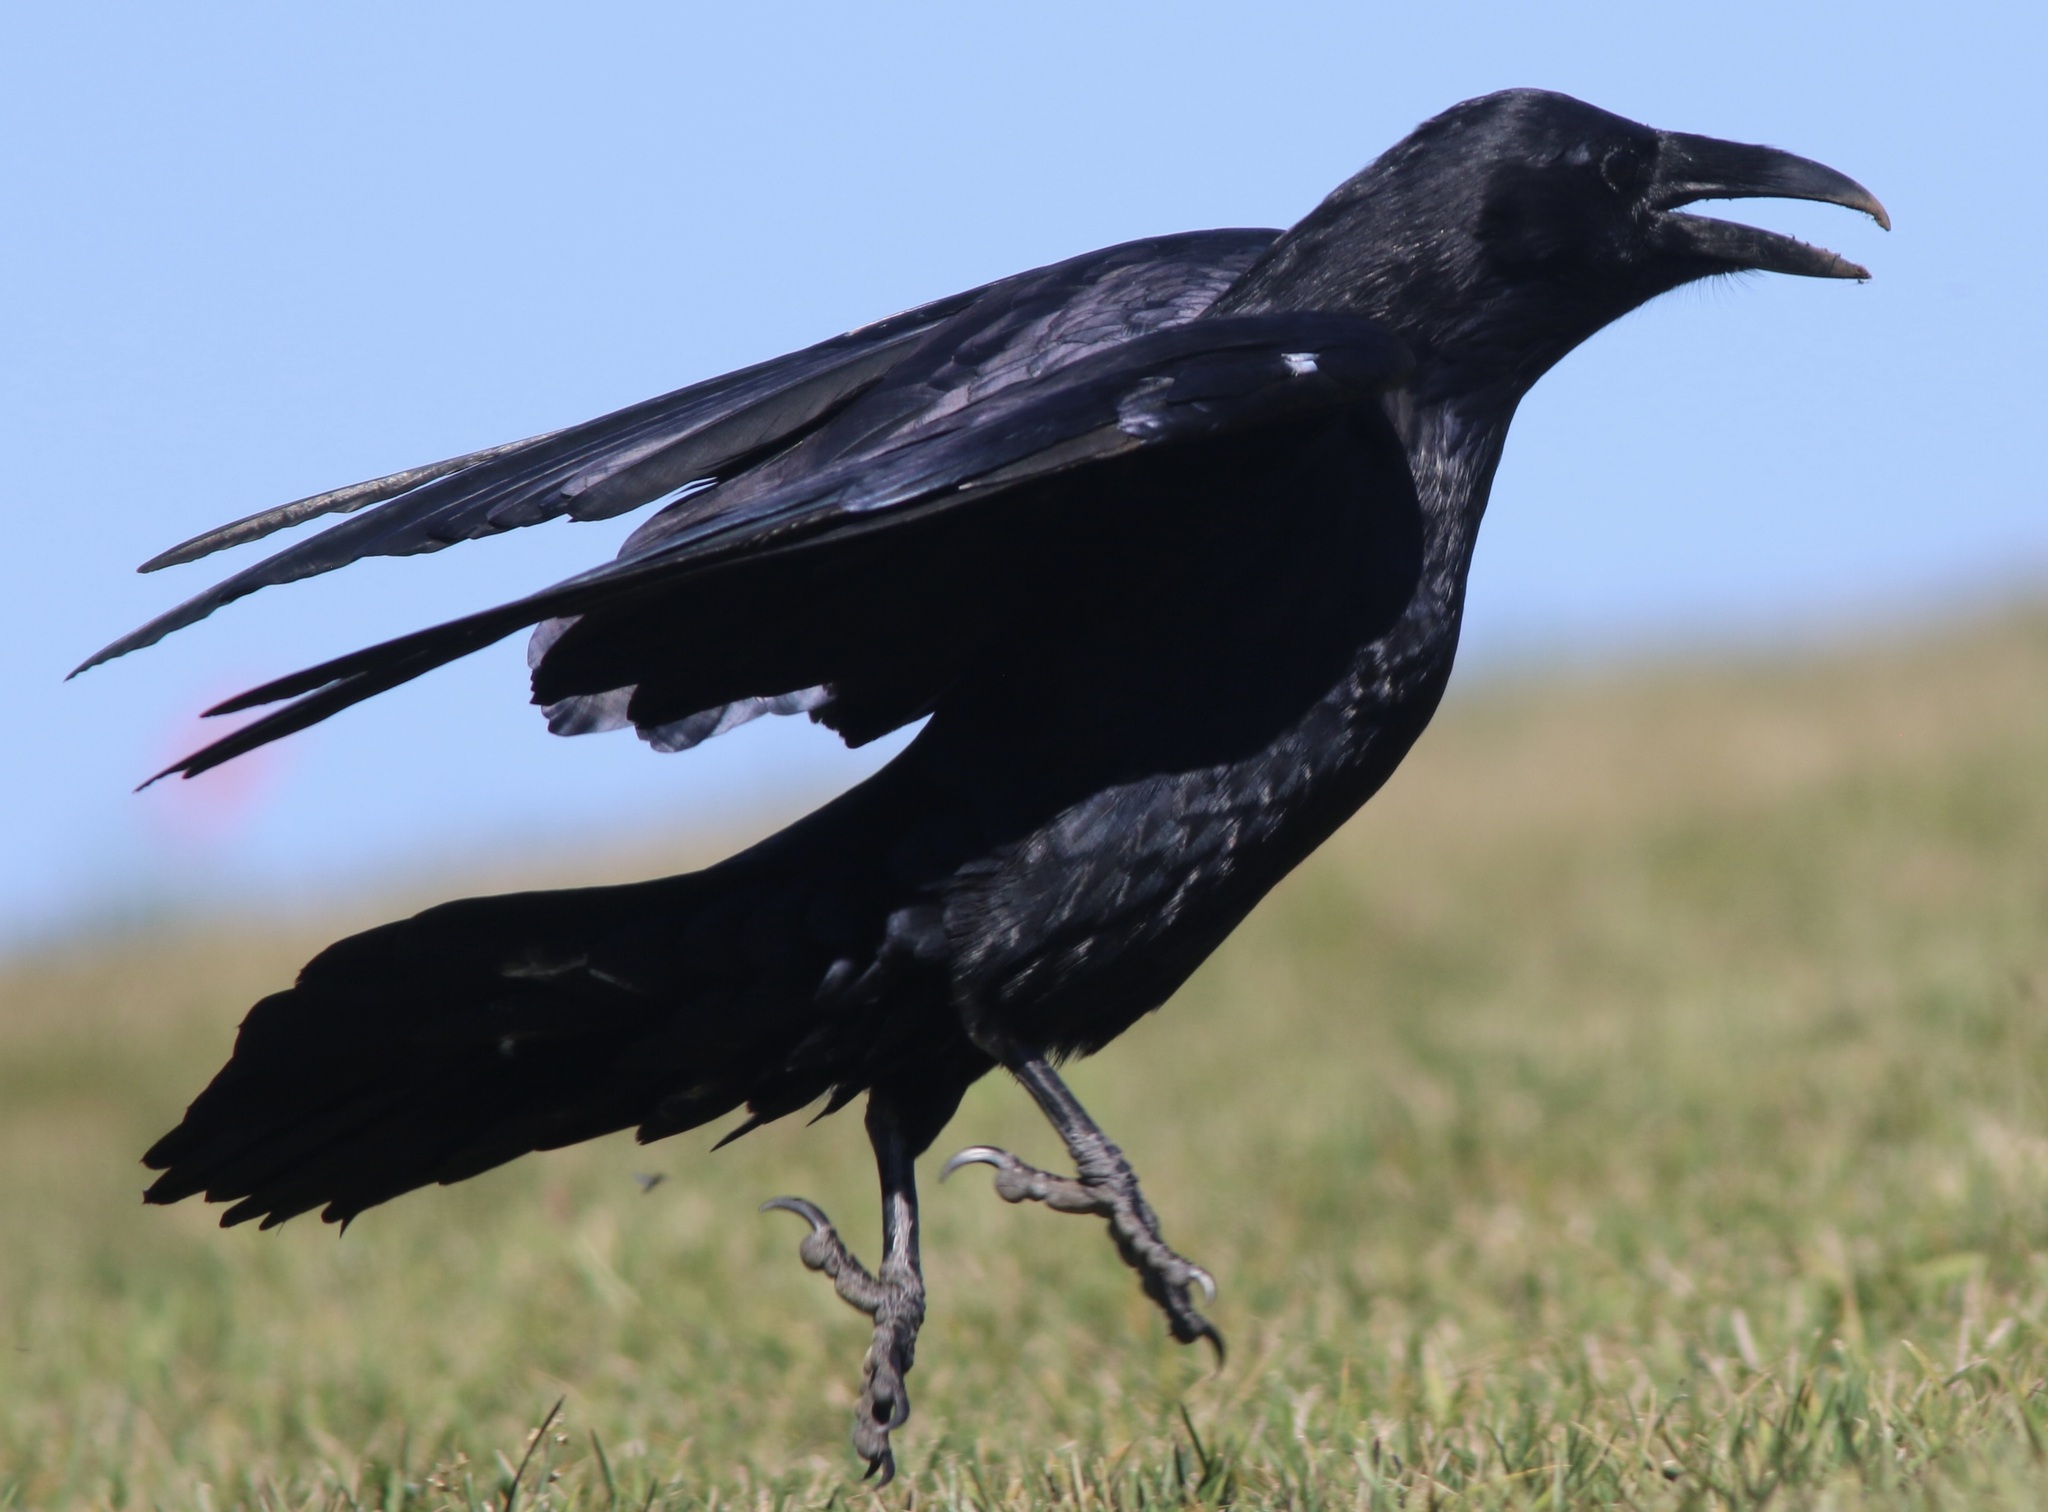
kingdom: Animalia
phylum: Chordata
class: Aves
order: Passeriformes
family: Corvidae
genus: Corvus
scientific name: Corvus corax
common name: Common raven
